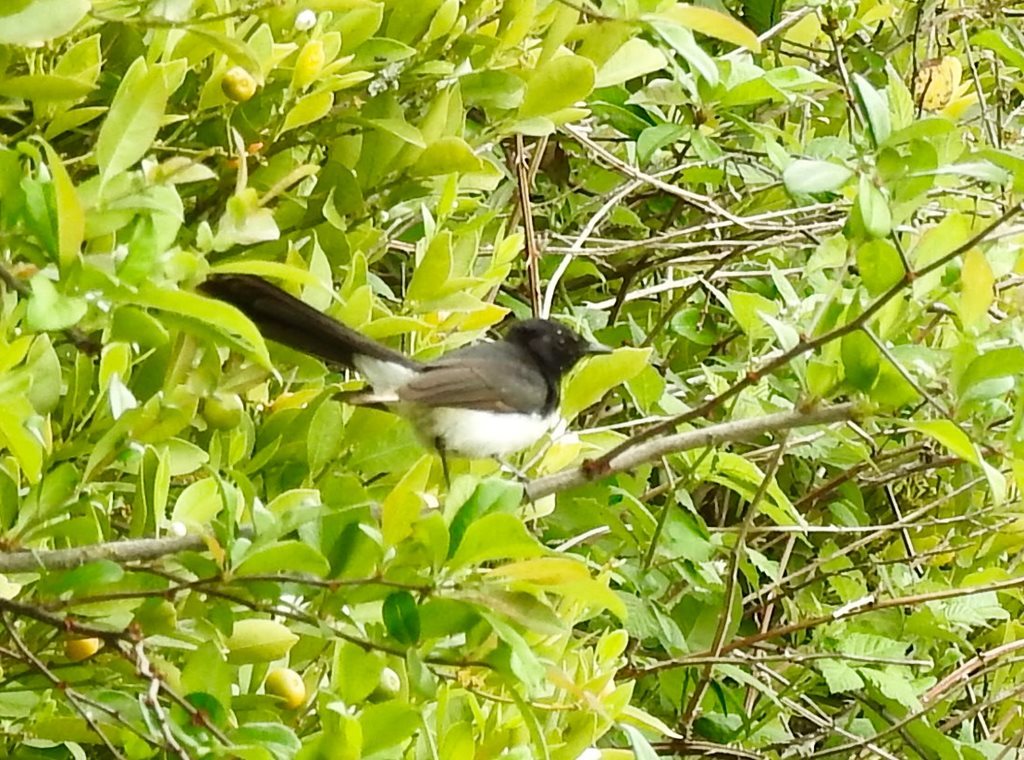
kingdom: Animalia
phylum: Chordata
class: Aves
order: Passeriformes
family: Rhipiduridae
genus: Rhipidura
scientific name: Rhipidura leucophrys
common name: Willie wagtail
